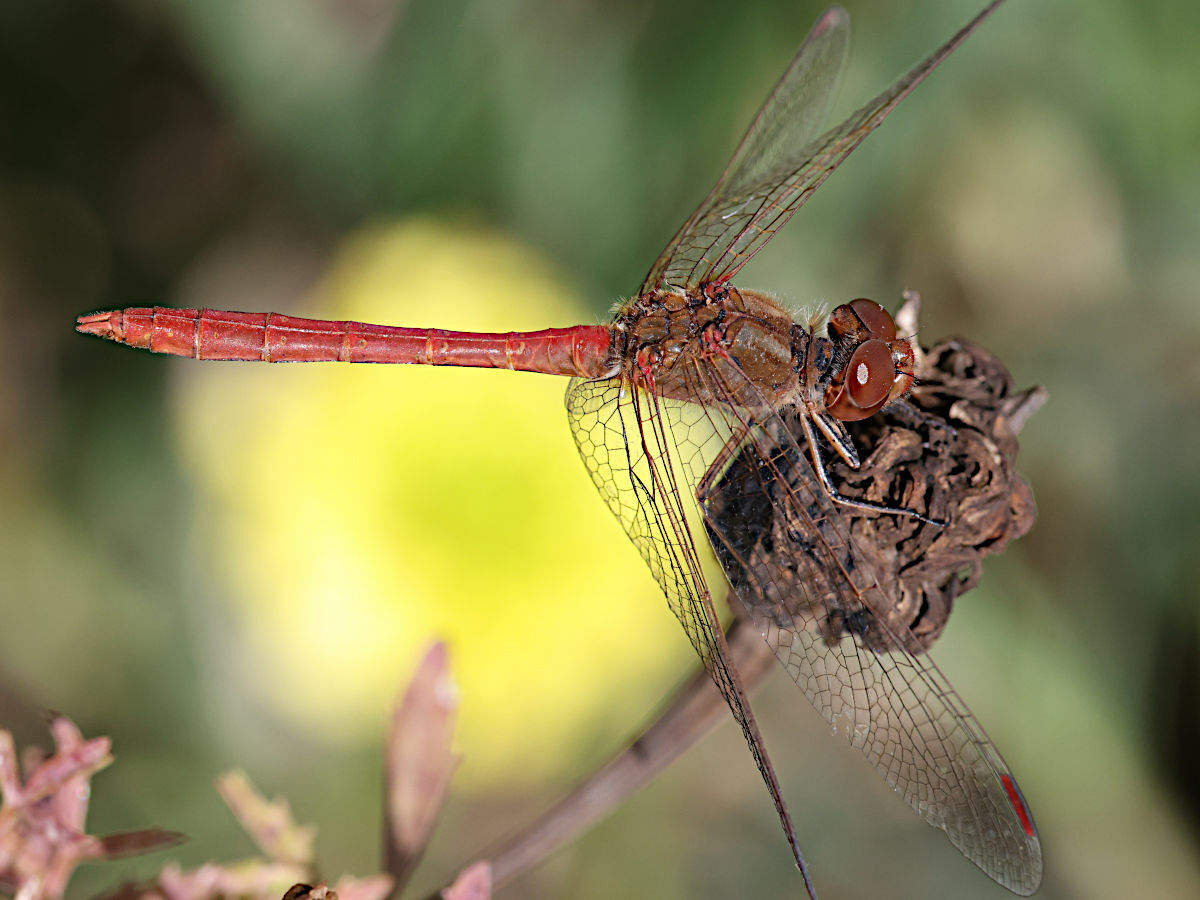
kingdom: Animalia
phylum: Arthropoda
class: Insecta
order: Odonata
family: Libellulidae
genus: Sympetrum
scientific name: Sympetrum meridionale
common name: Southern darter
